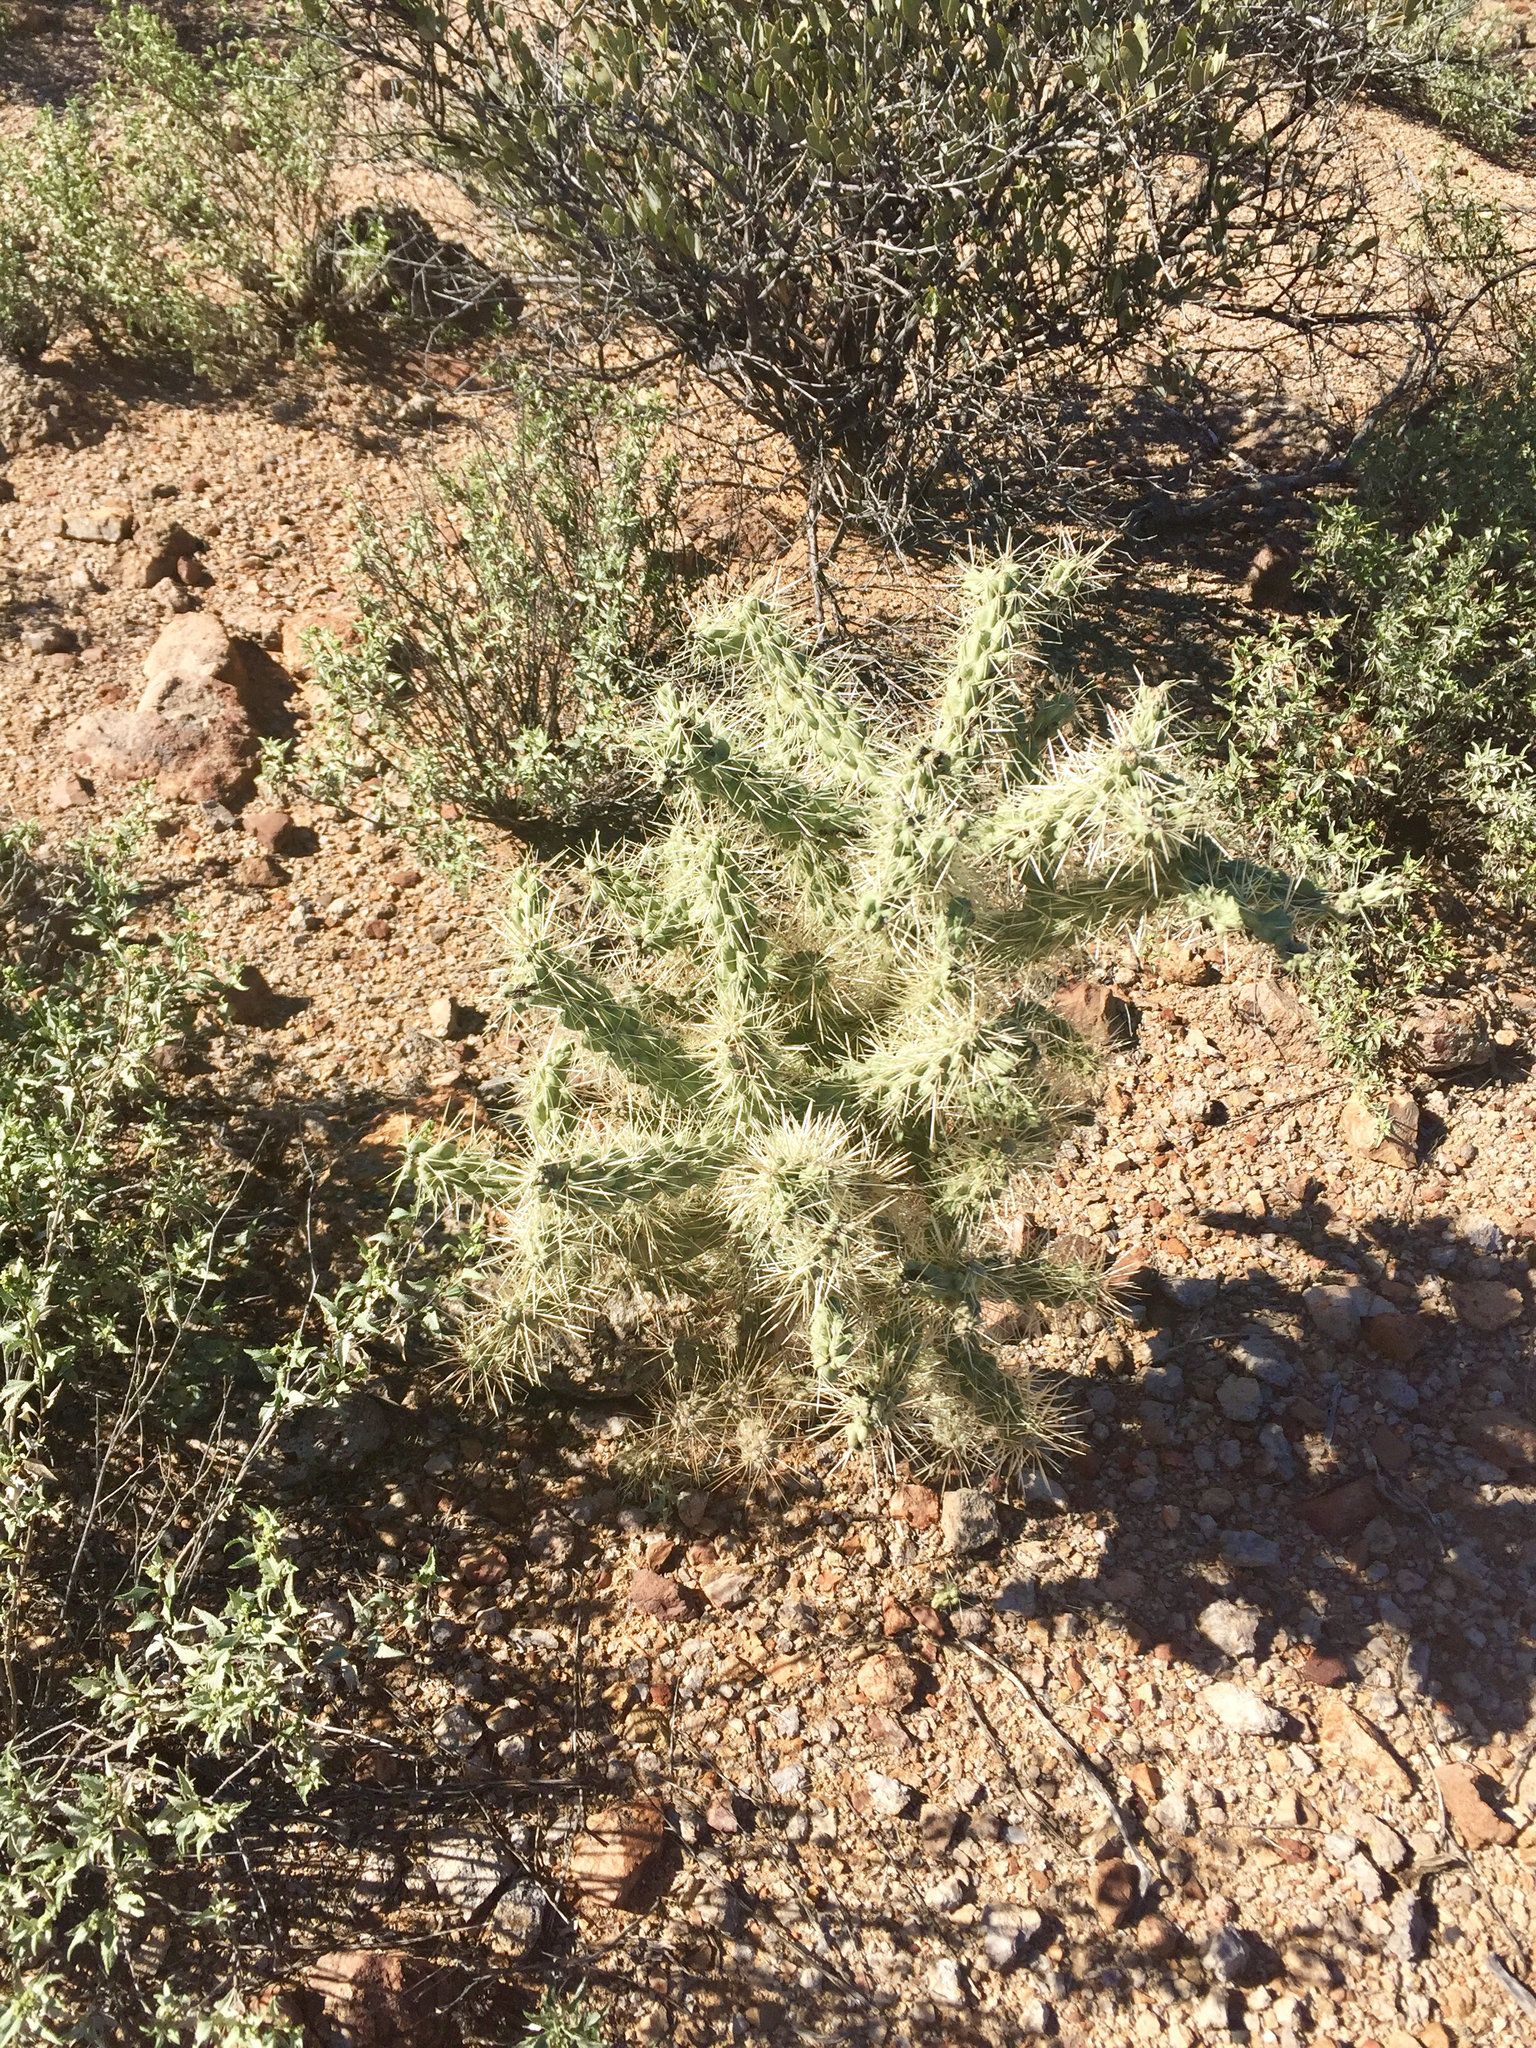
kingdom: Plantae
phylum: Tracheophyta
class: Magnoliopsida
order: Caryophyllales
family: Cactaceae
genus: Cylindropuntia
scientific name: Cylindropuntia fulgida
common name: Jumping cholla
